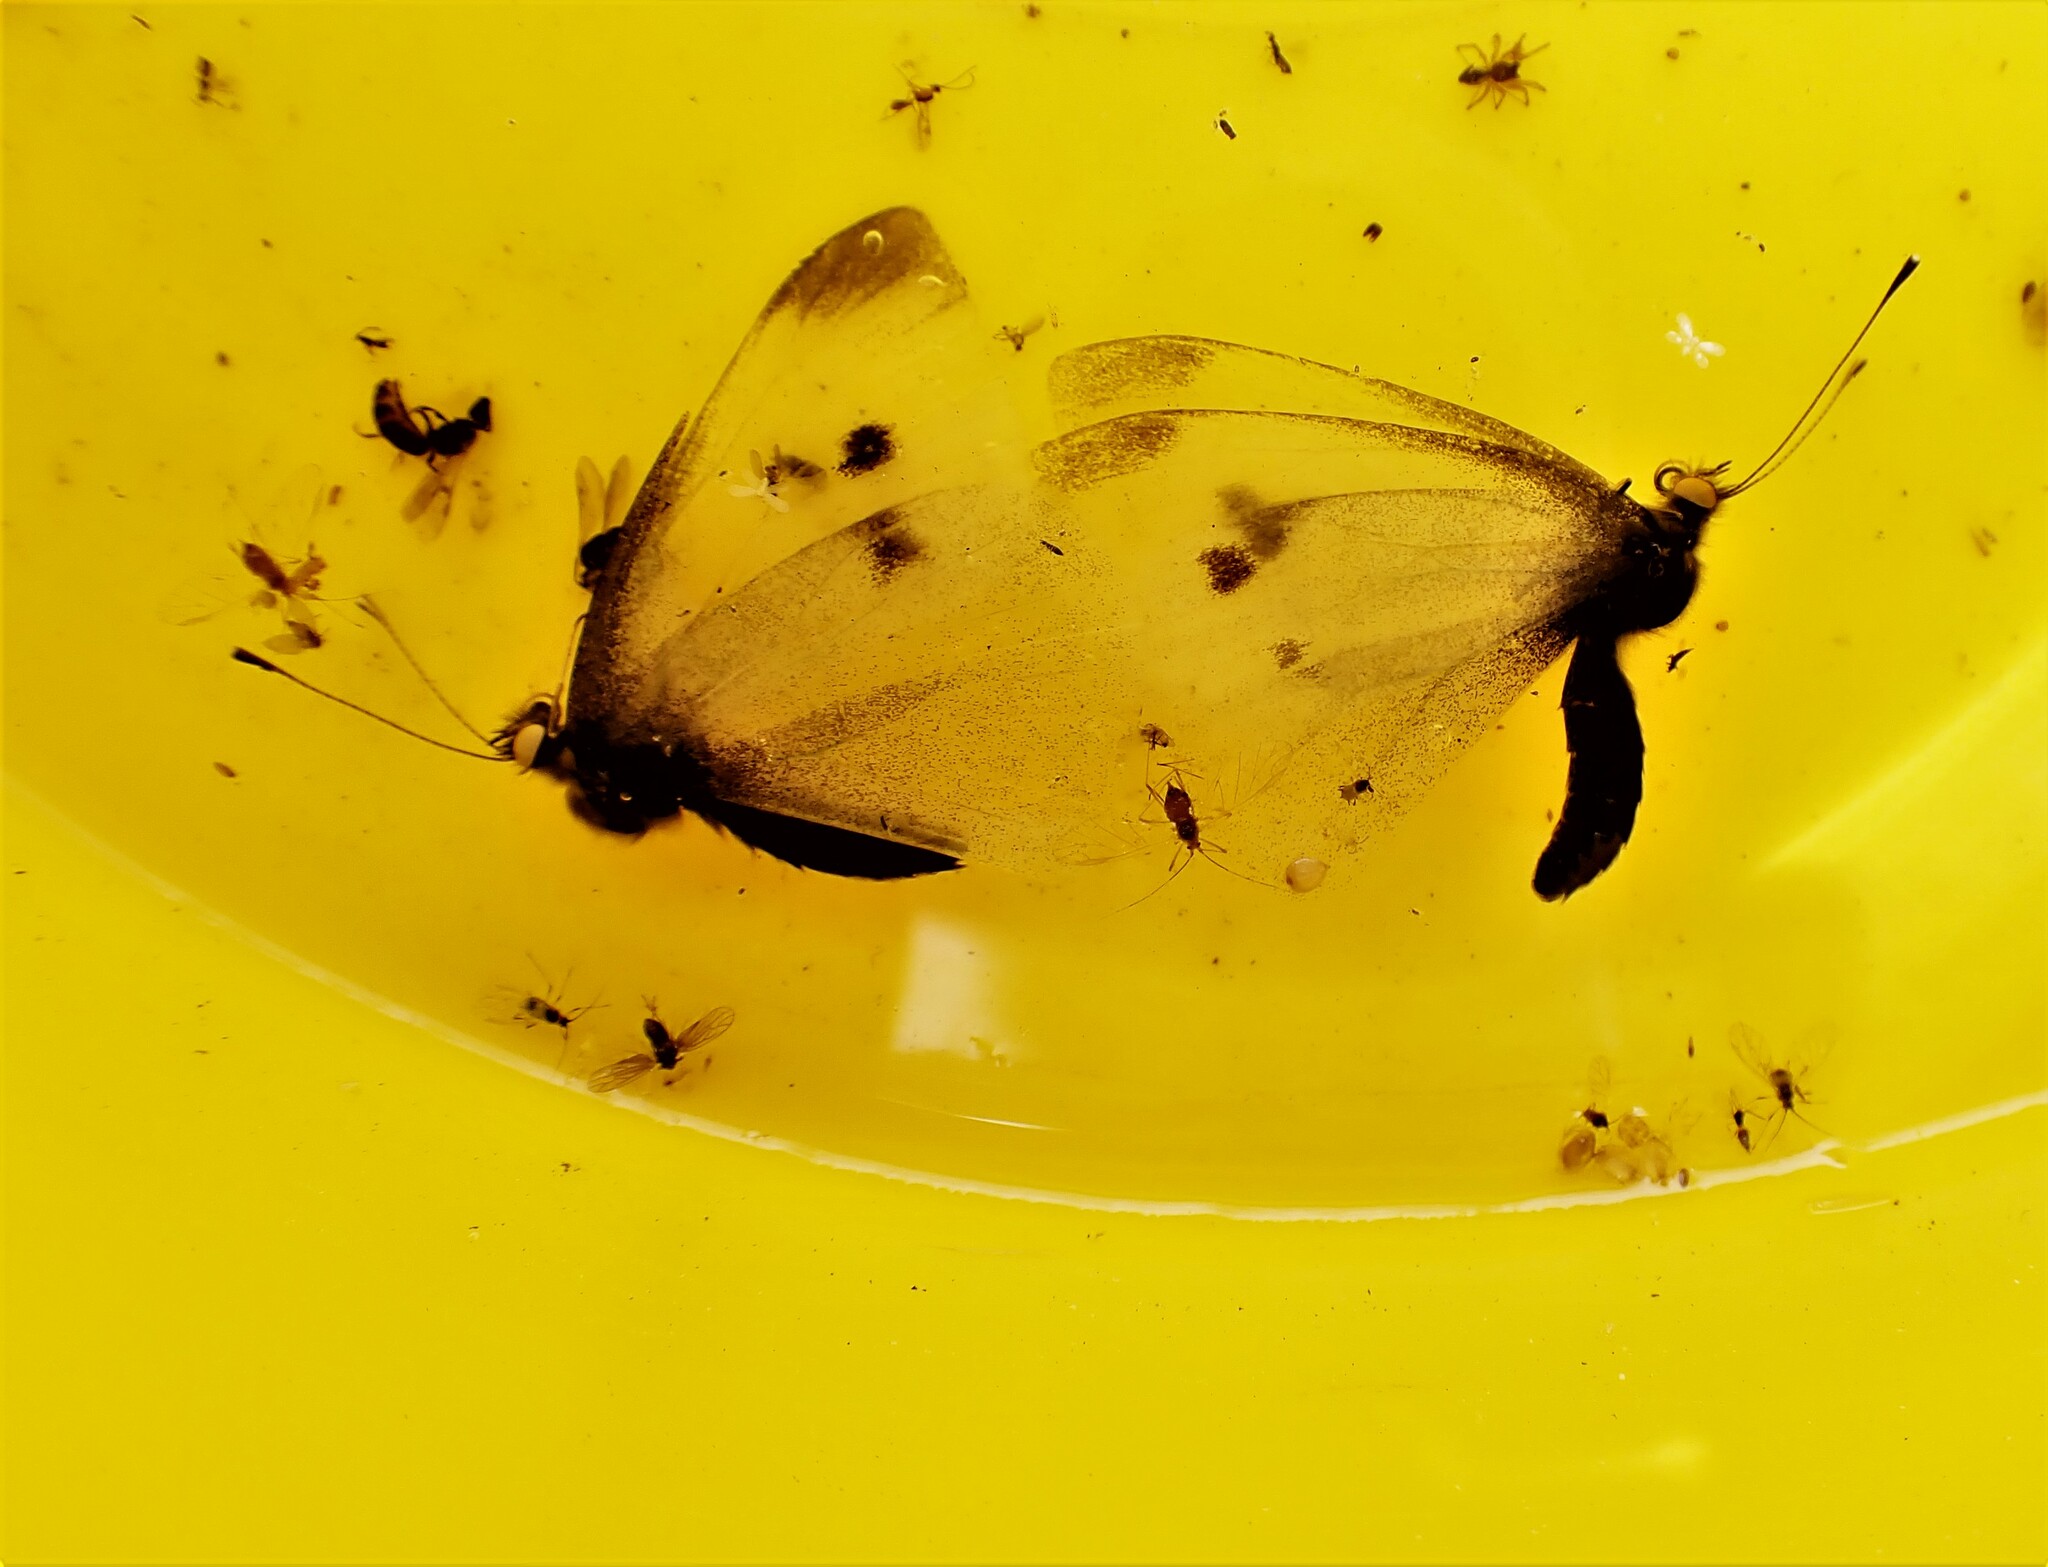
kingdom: Animalia
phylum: Arthropoda
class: Insecta
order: Lepidoptera
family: Pieridae
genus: Pieris
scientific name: Pieris rapae
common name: Small white
